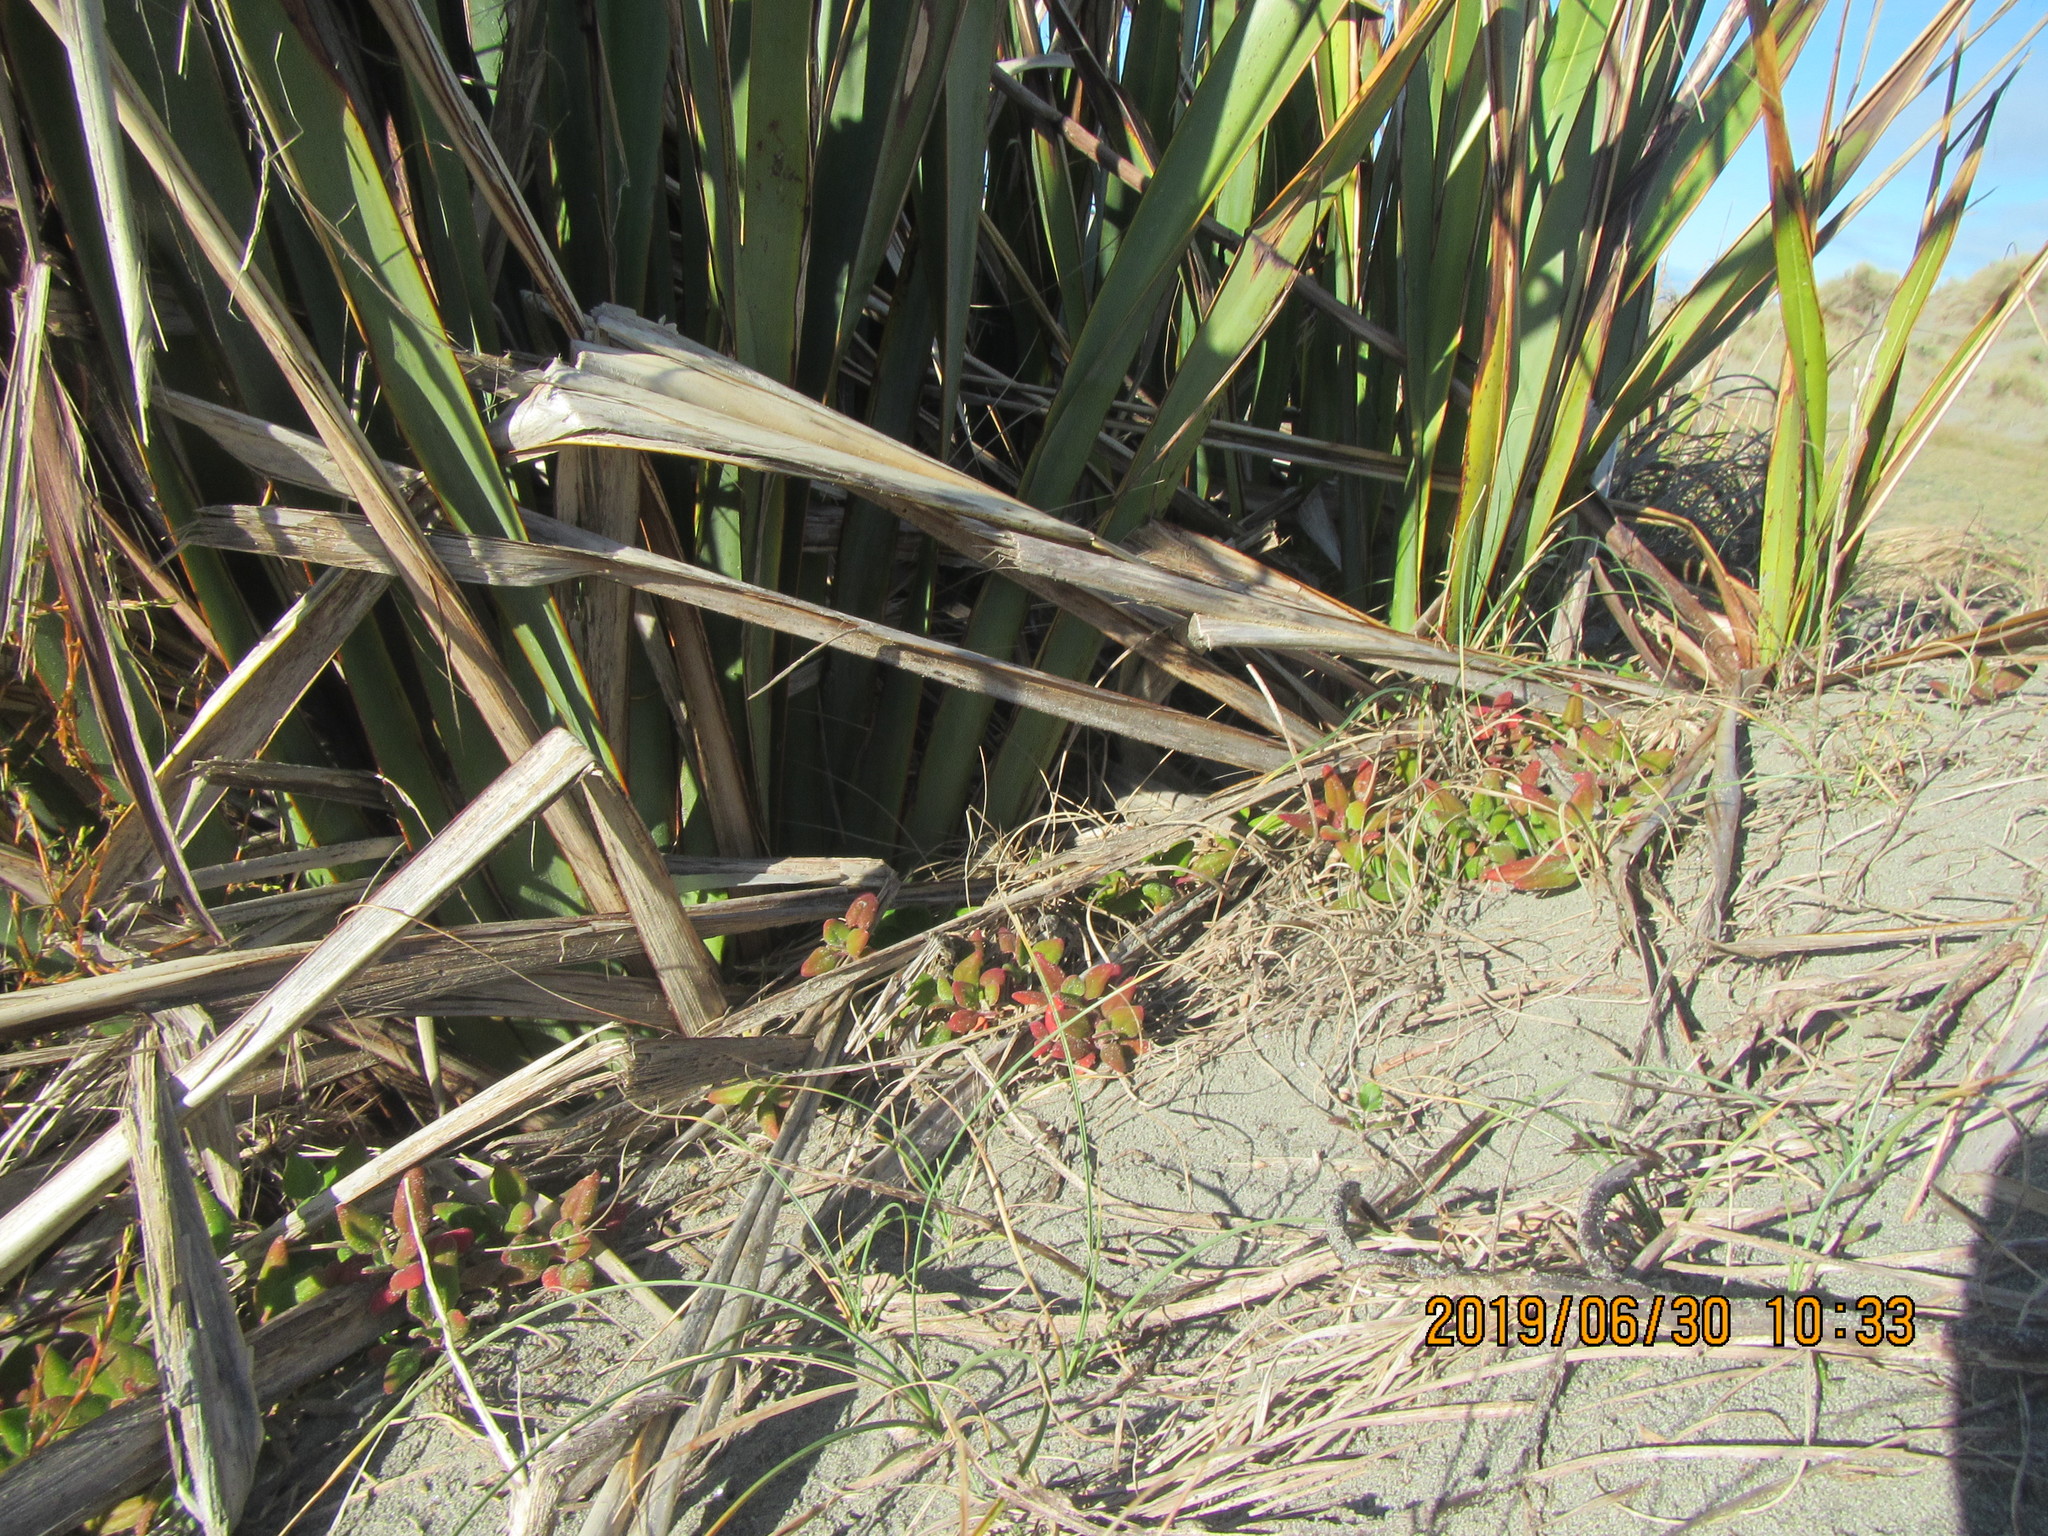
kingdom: Plantae
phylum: Tracheophyta
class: Magnoliopsida
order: Caryophyllales
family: Aizoaceae
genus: Tetragonia
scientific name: Tetragonia implexicoma
